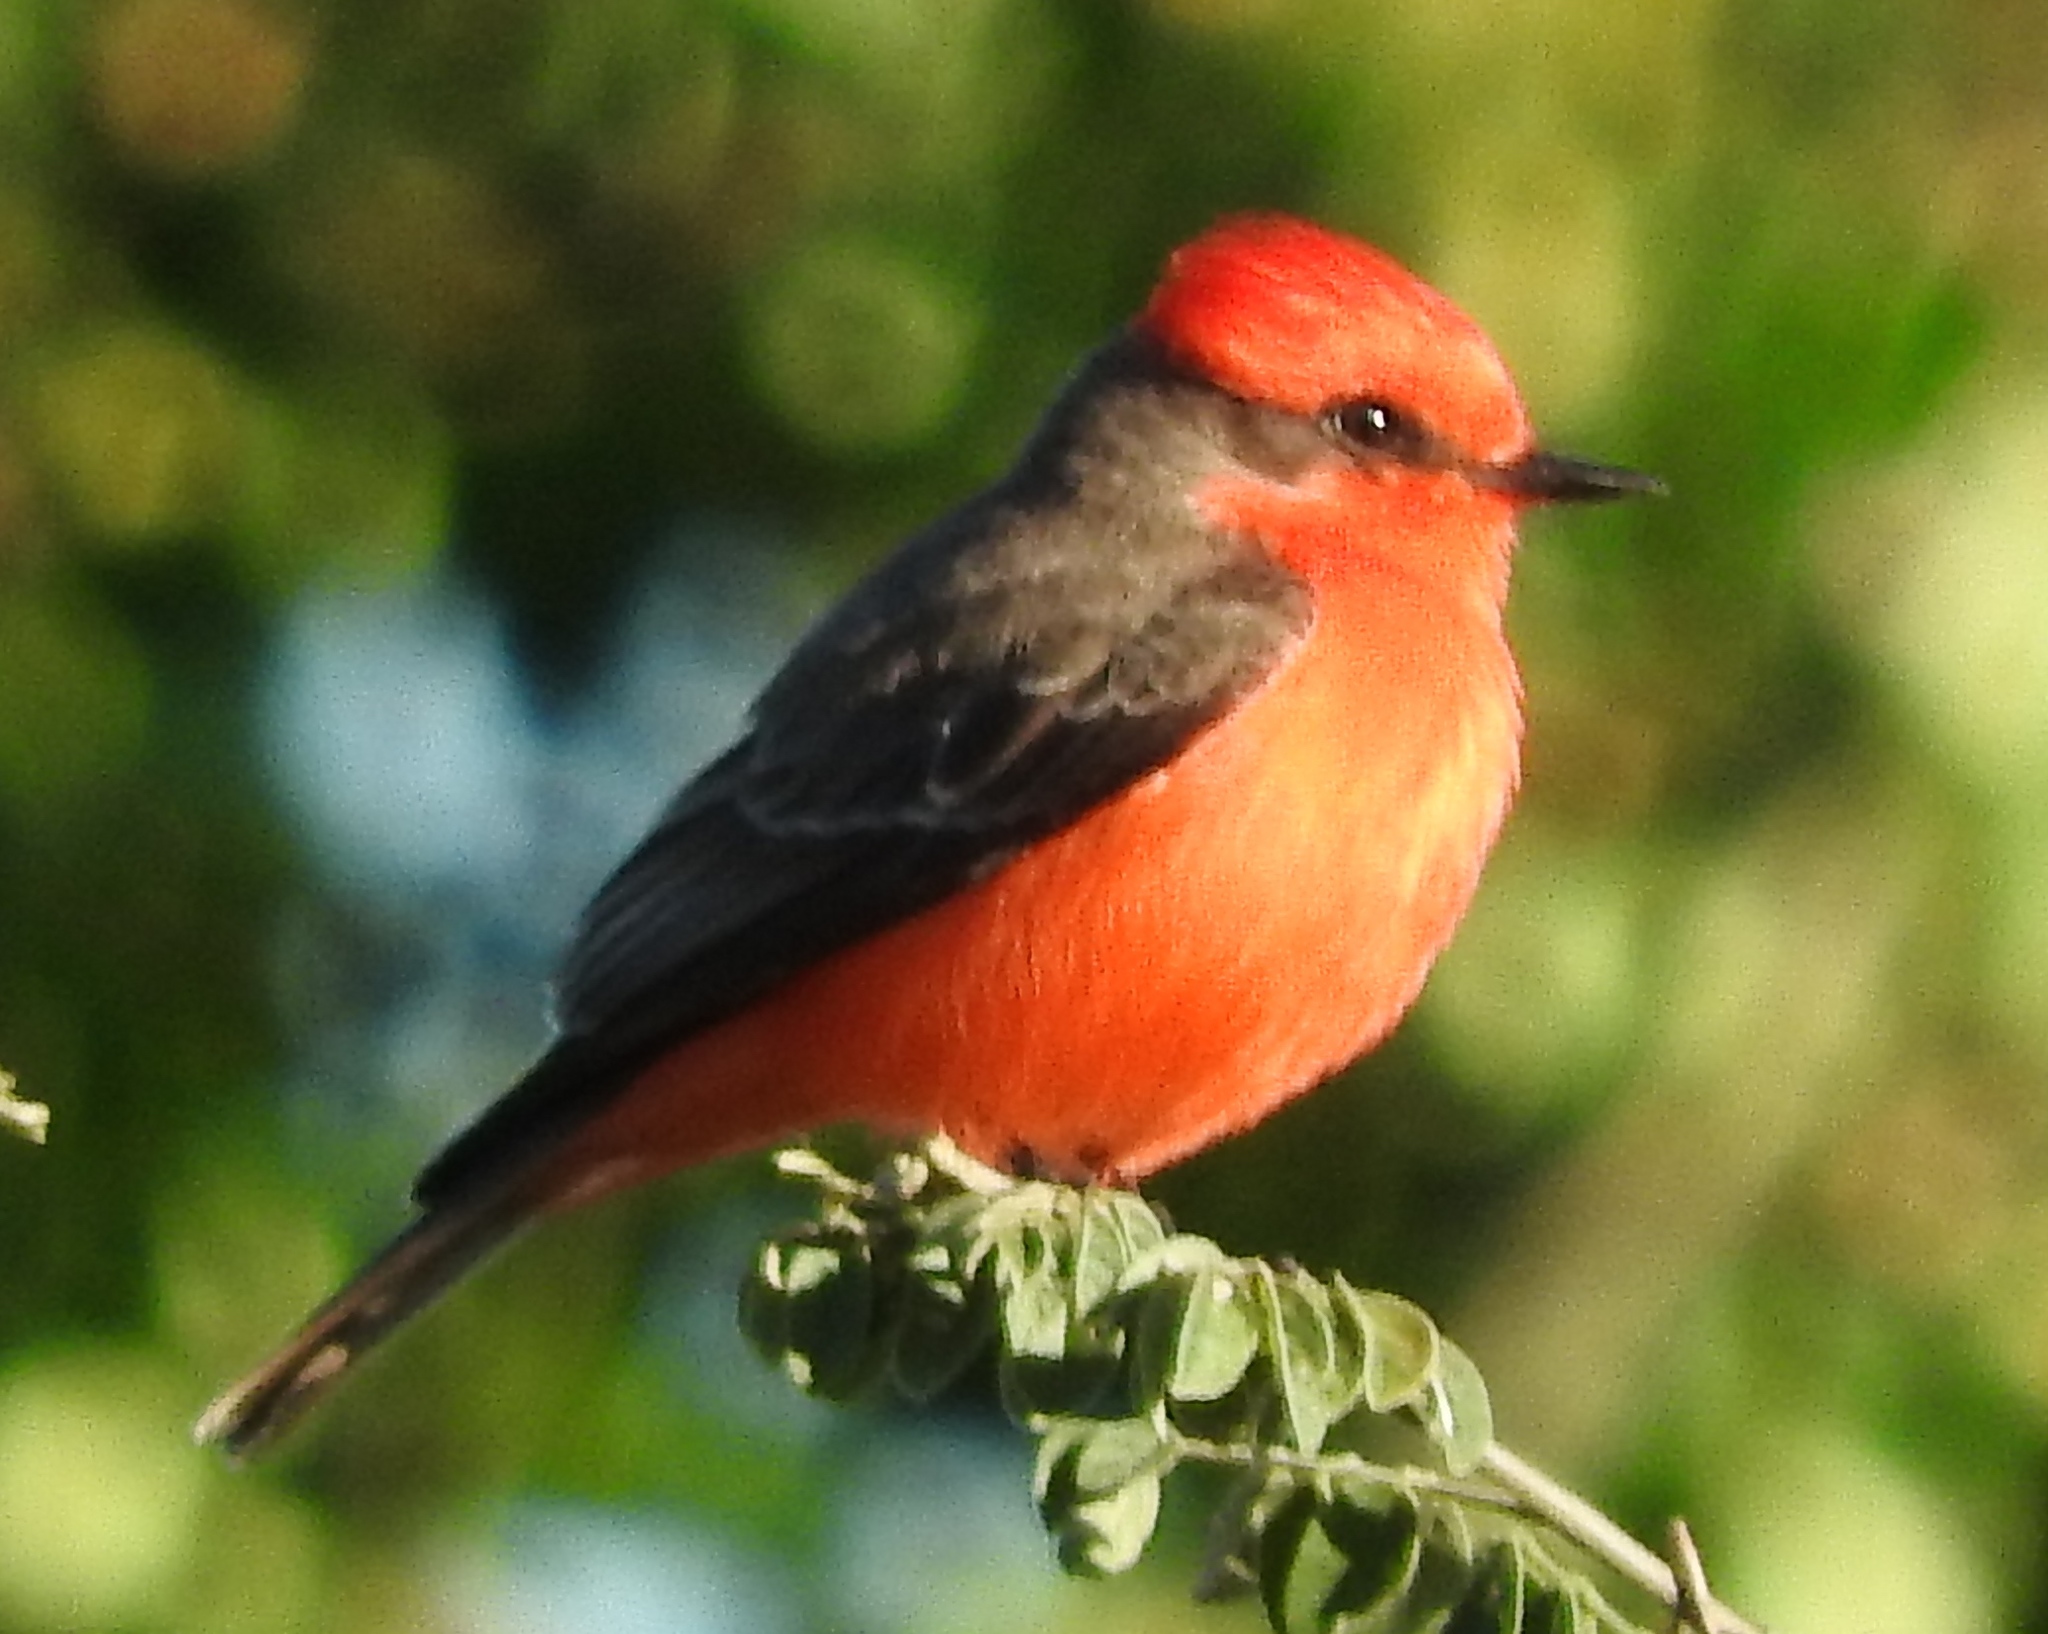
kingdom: Animalia
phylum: Chordata
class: Aves
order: Passeriformes
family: Tyrannidae
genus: Pyrocephalus
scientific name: Pyrocephalus rubinus
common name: Vermilion flycatcher
